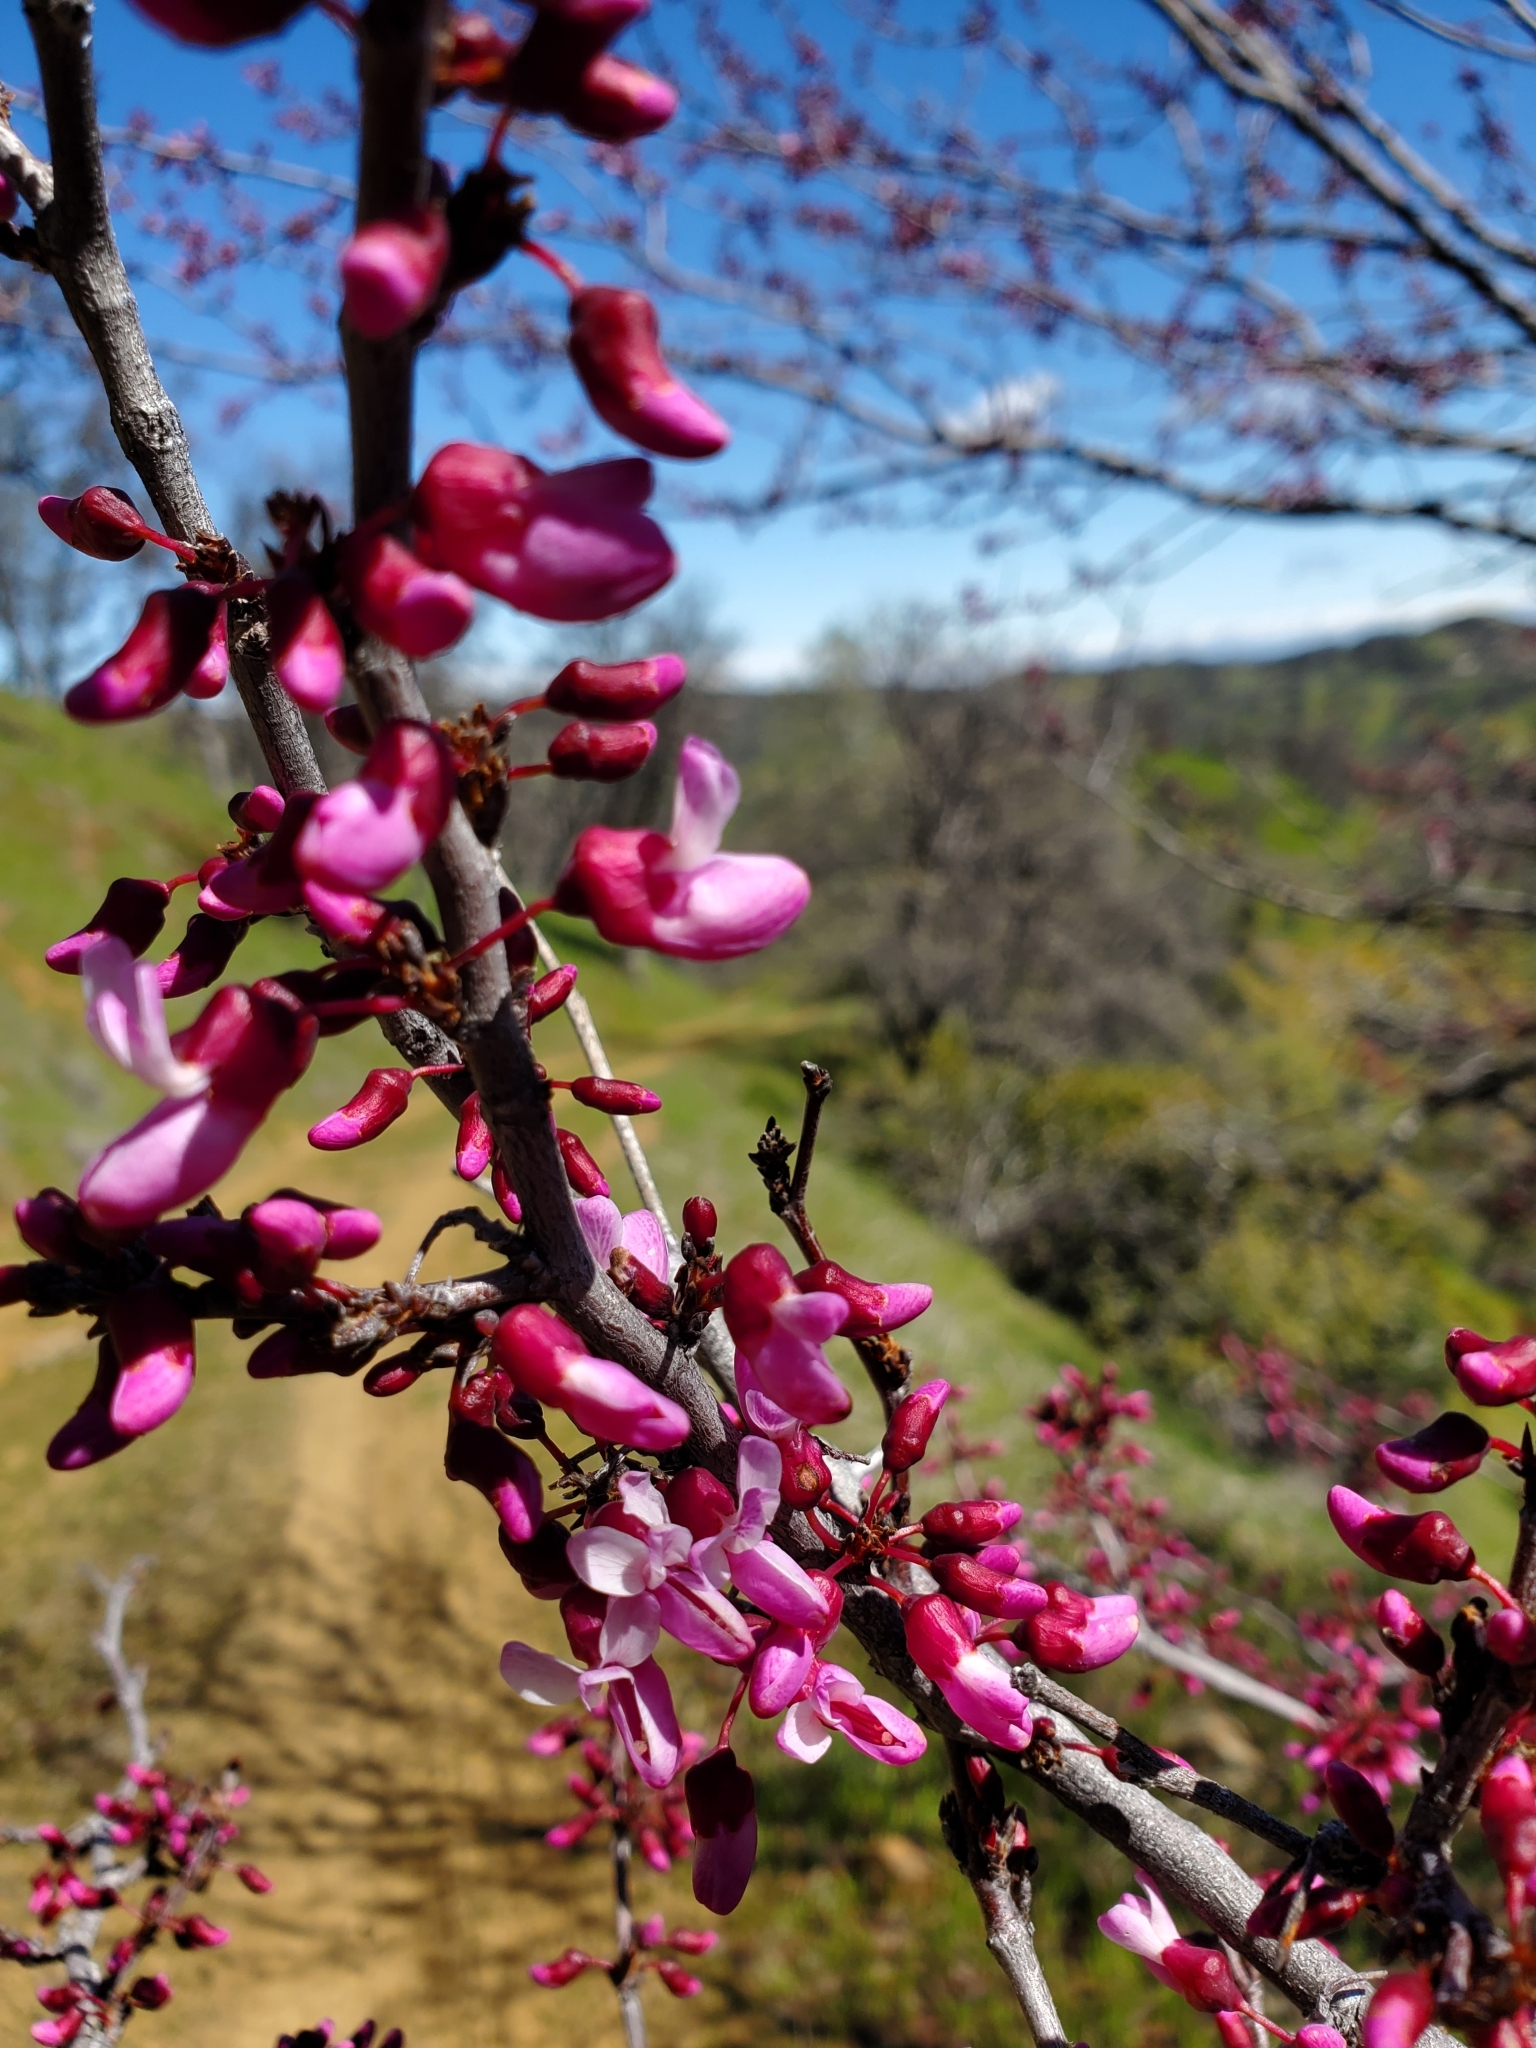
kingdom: Plantae
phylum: Tracheophyta
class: Magnoliopsida
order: Fabales
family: Fabaceae
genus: Cercis
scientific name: Cercis occidentalis
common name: California redbud
